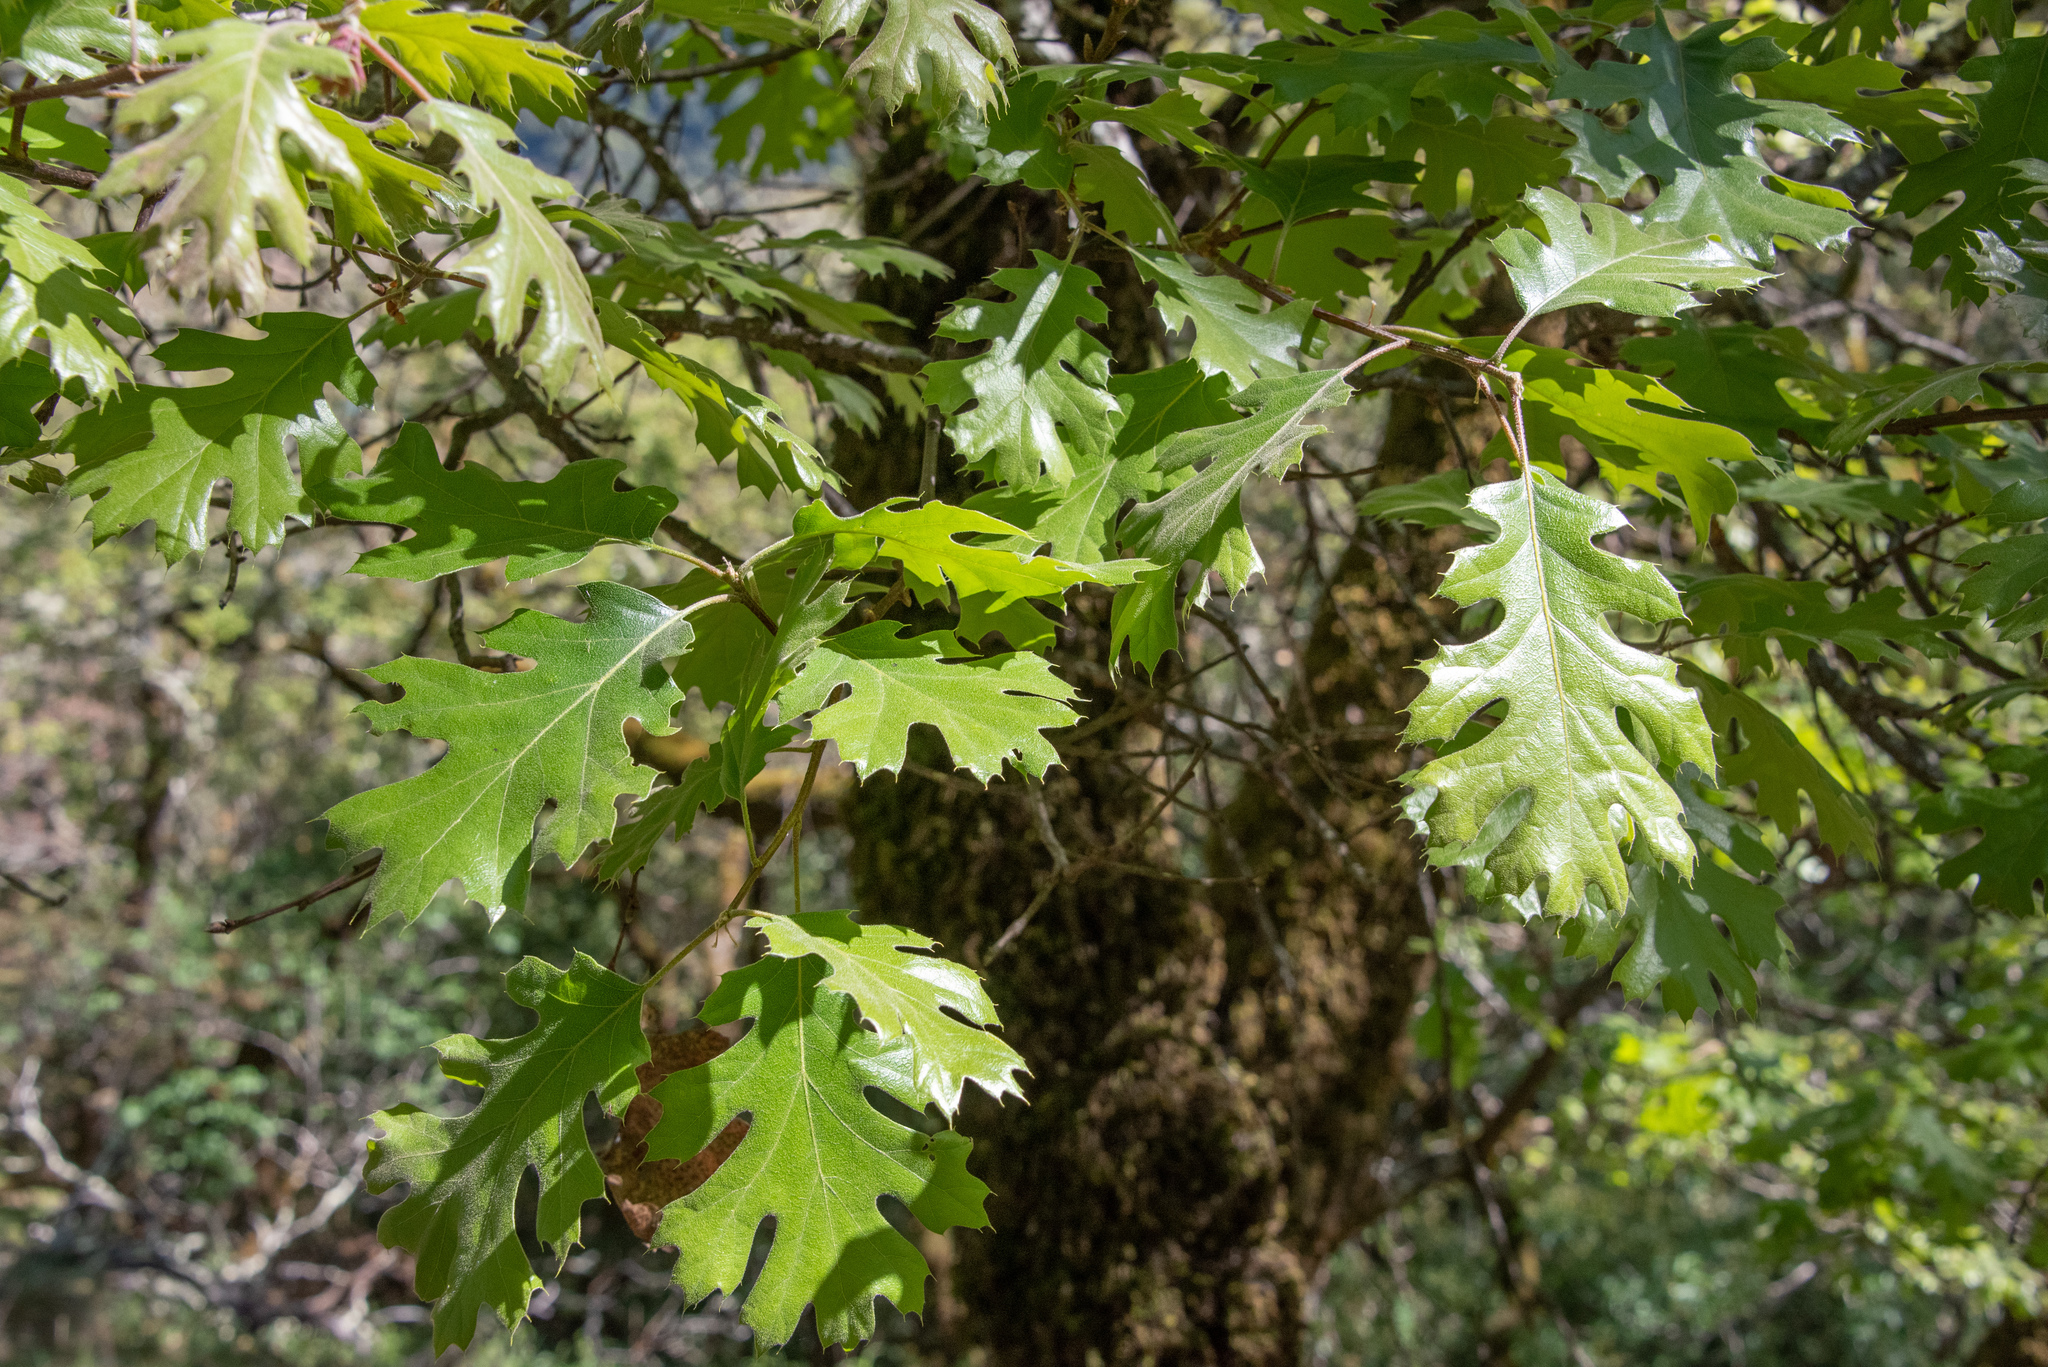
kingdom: Plantae
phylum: Tracheophyta
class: Magnoliopsida
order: Fagales
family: Fagaceae
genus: Quercus
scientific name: Quercus kelloggii
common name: California black oak
